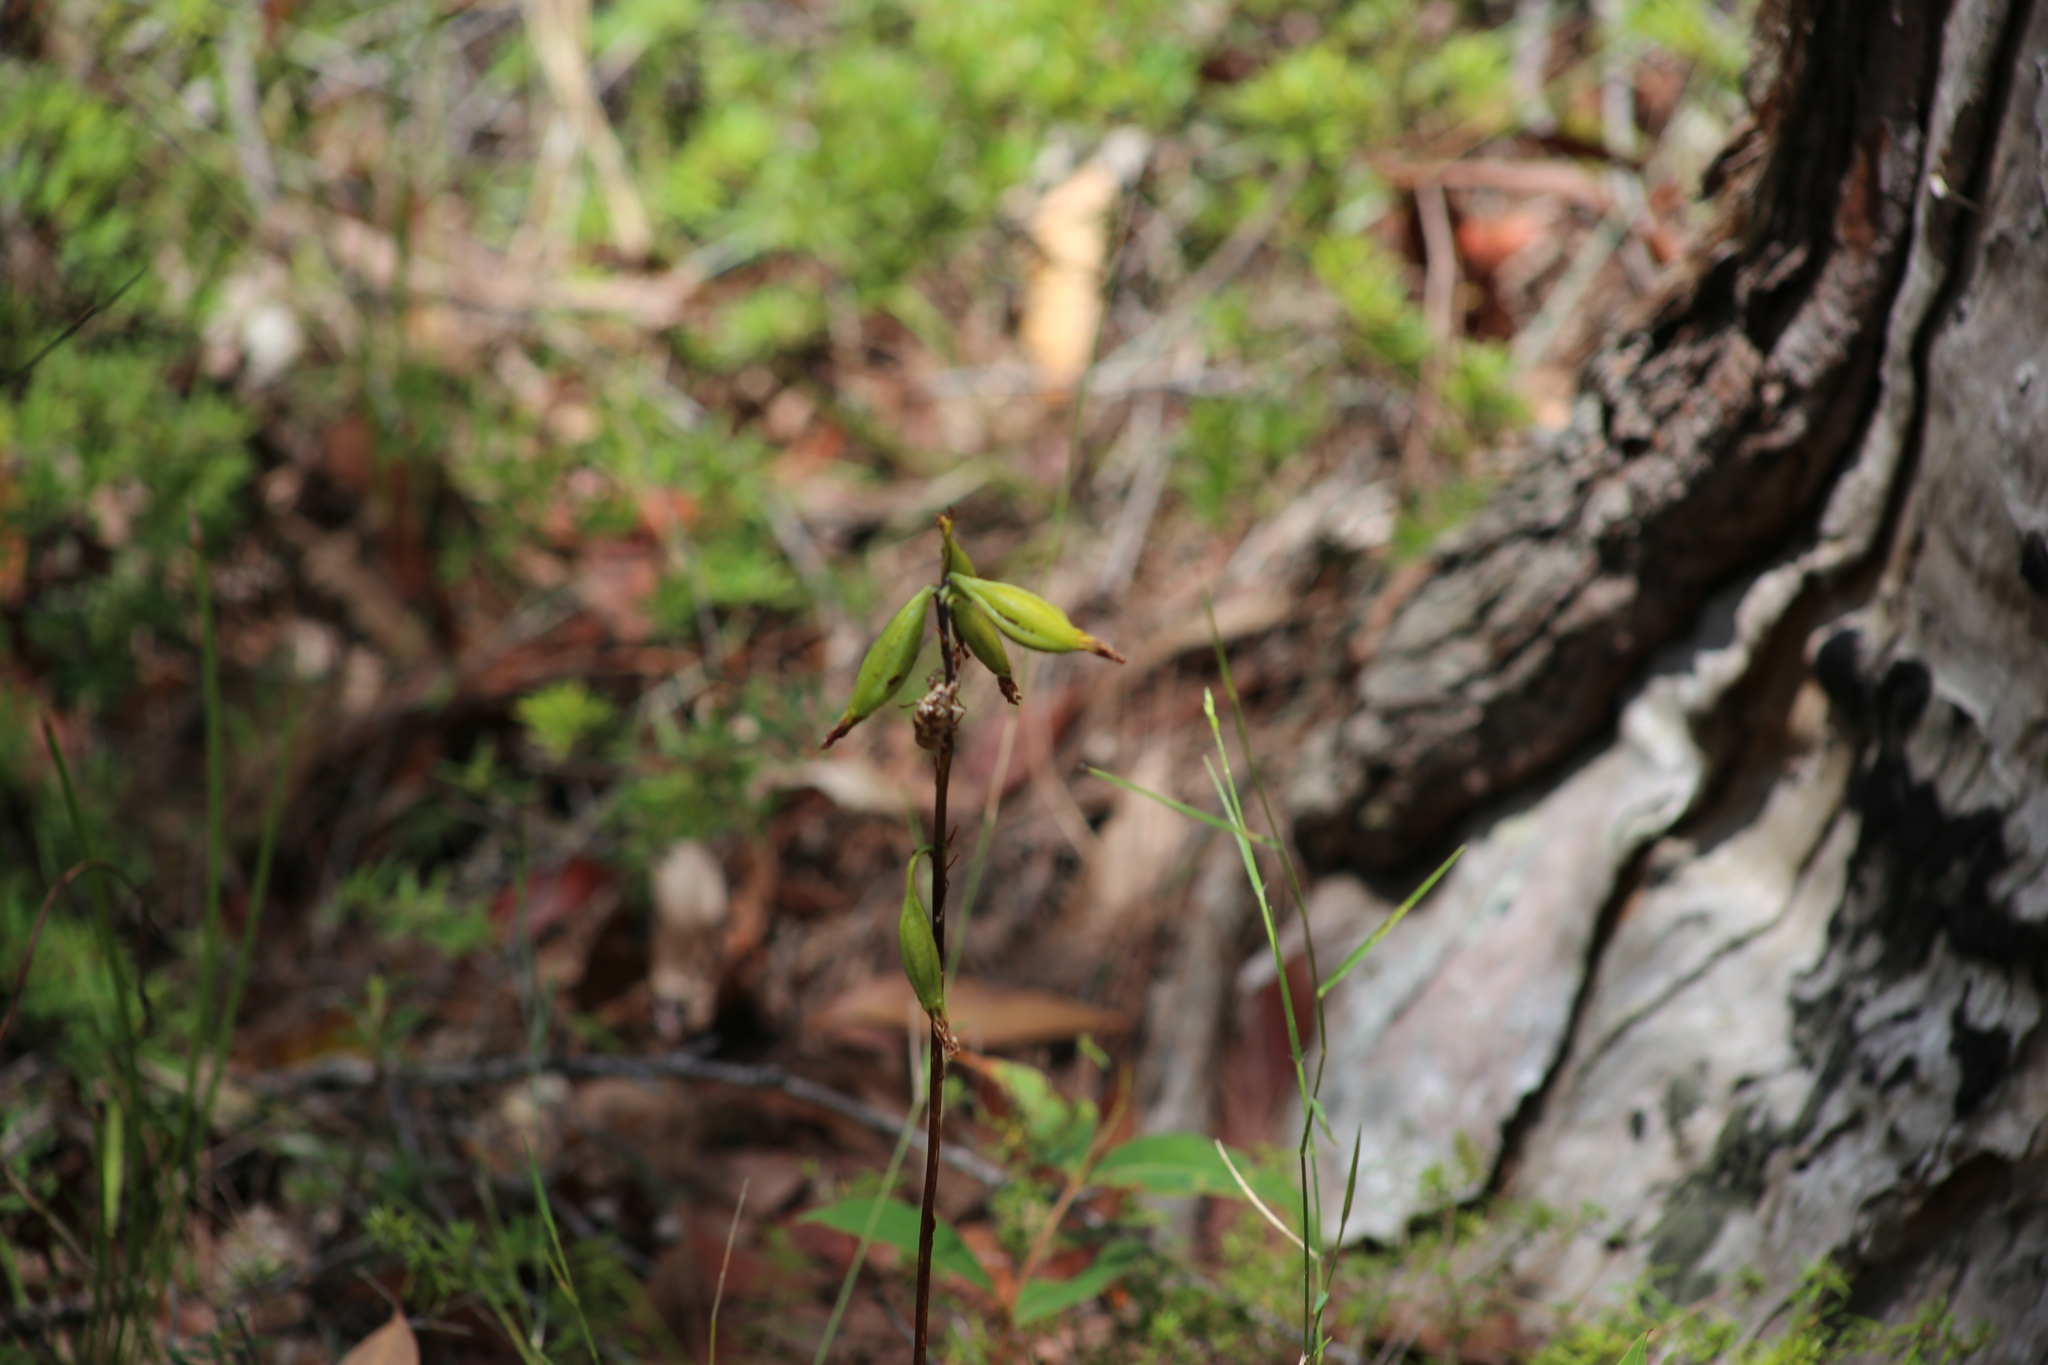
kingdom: Plantae
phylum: Tracheophyta
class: Liliopsida
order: Asparagales
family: Orchidaceae
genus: Dipodium
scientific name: Dipodium
